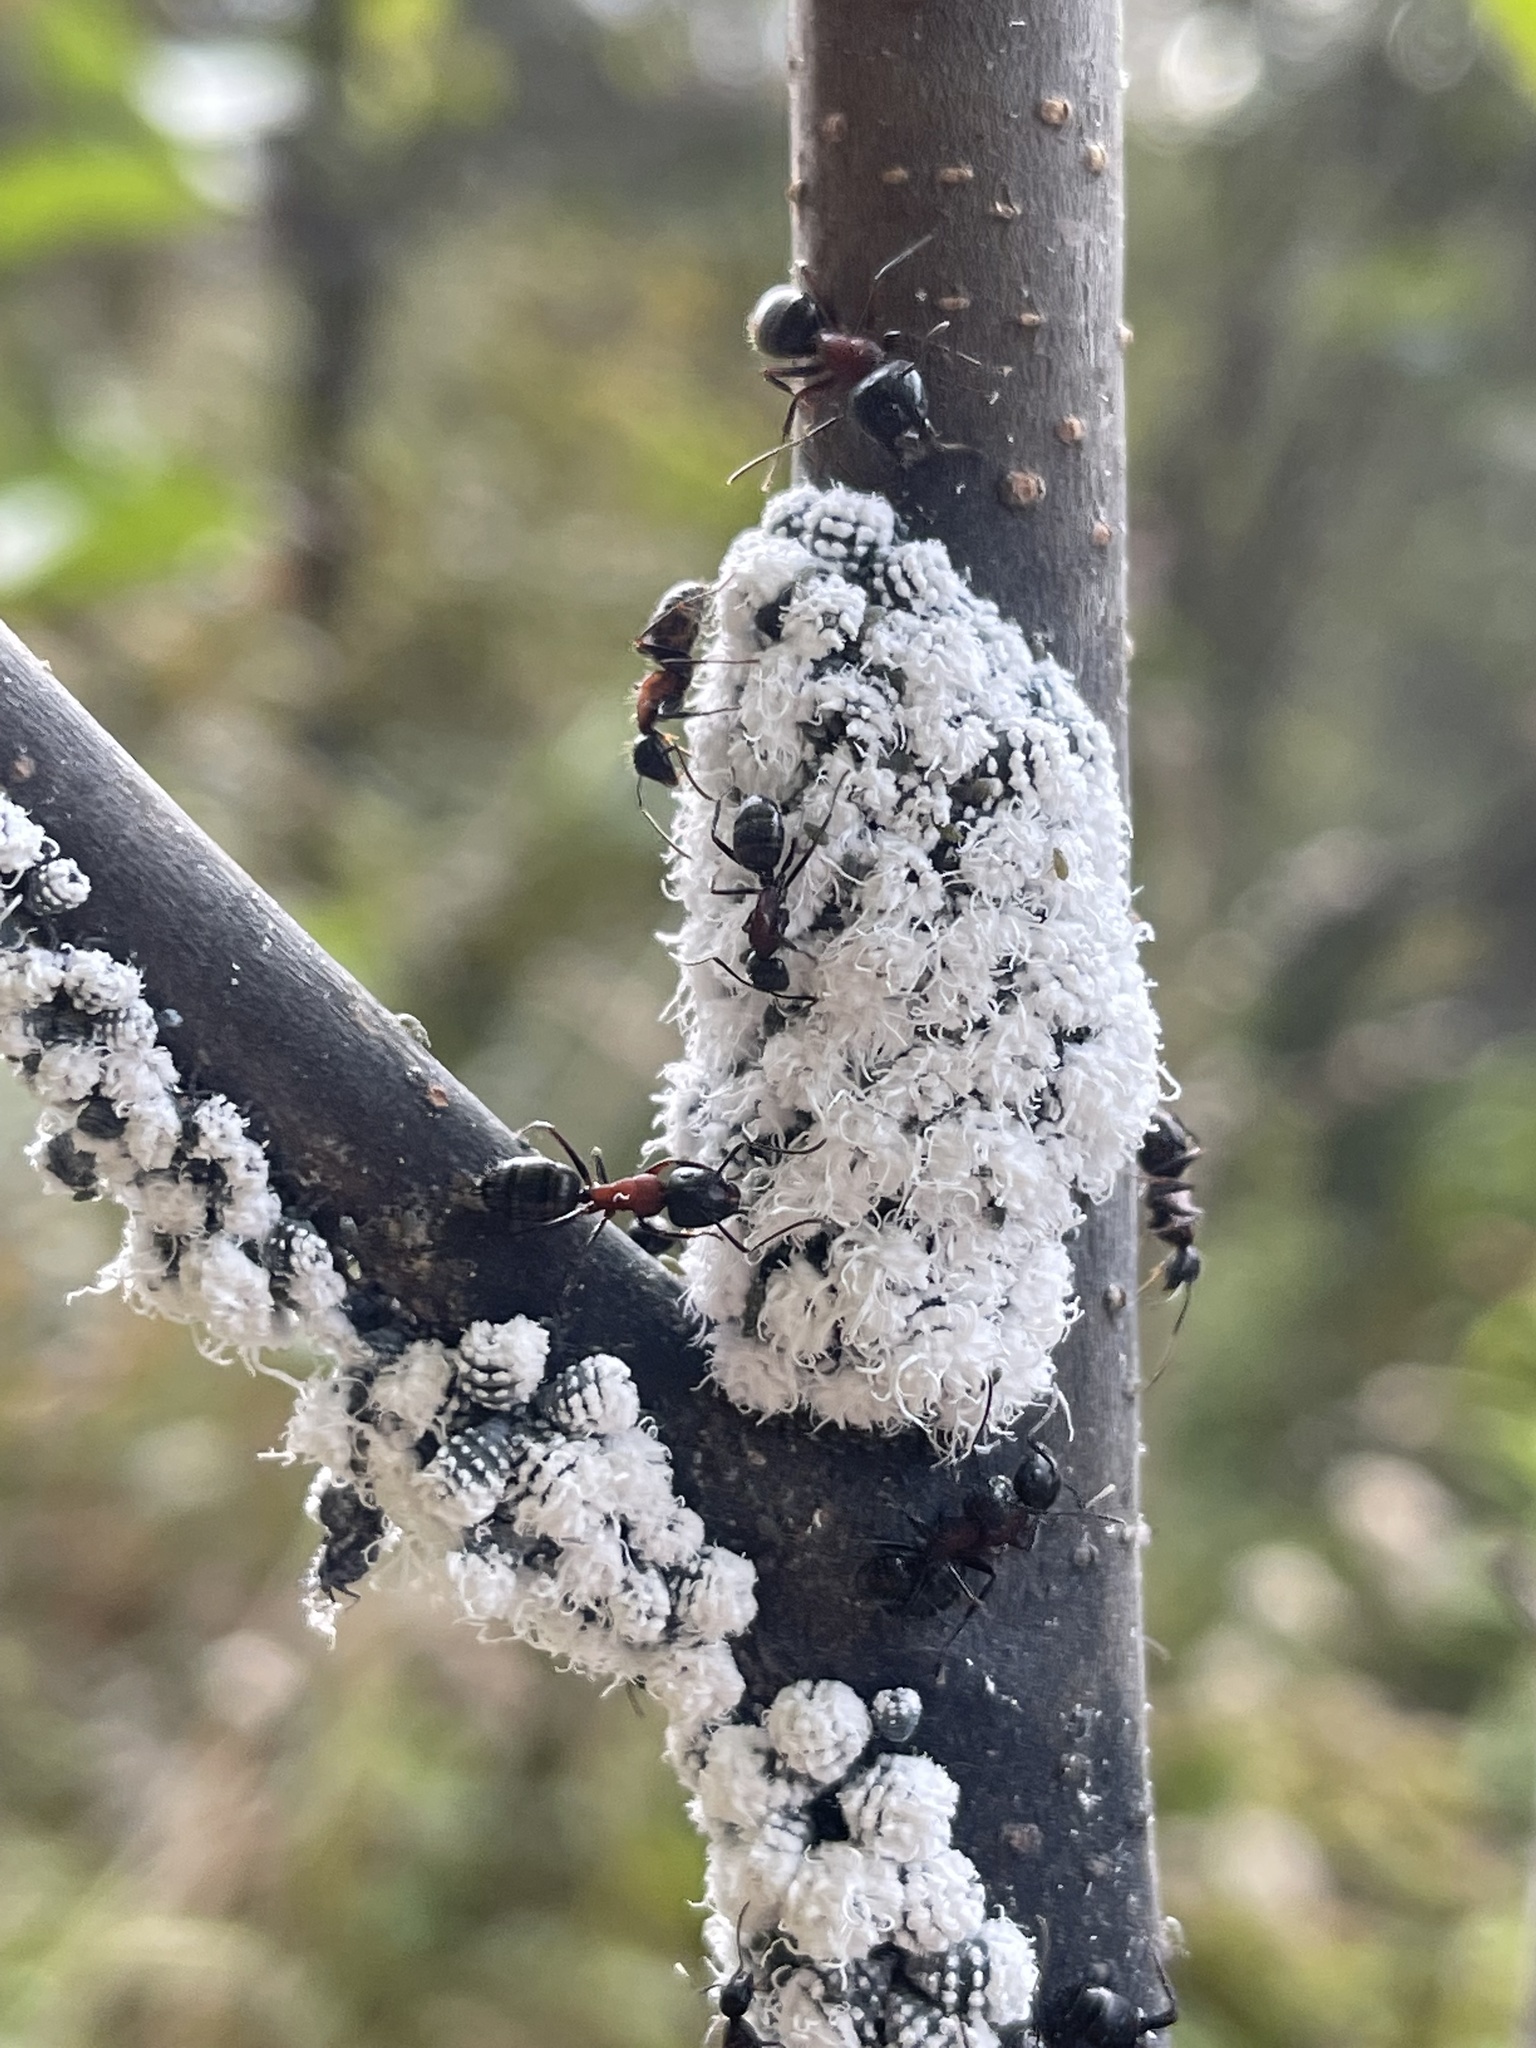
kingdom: Animalia
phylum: Arthropoda
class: Insecta
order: Hymenoptera
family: Formicidae
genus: Camponotus
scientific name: Camponotus novaeboracensis
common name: New york carpenter ant
